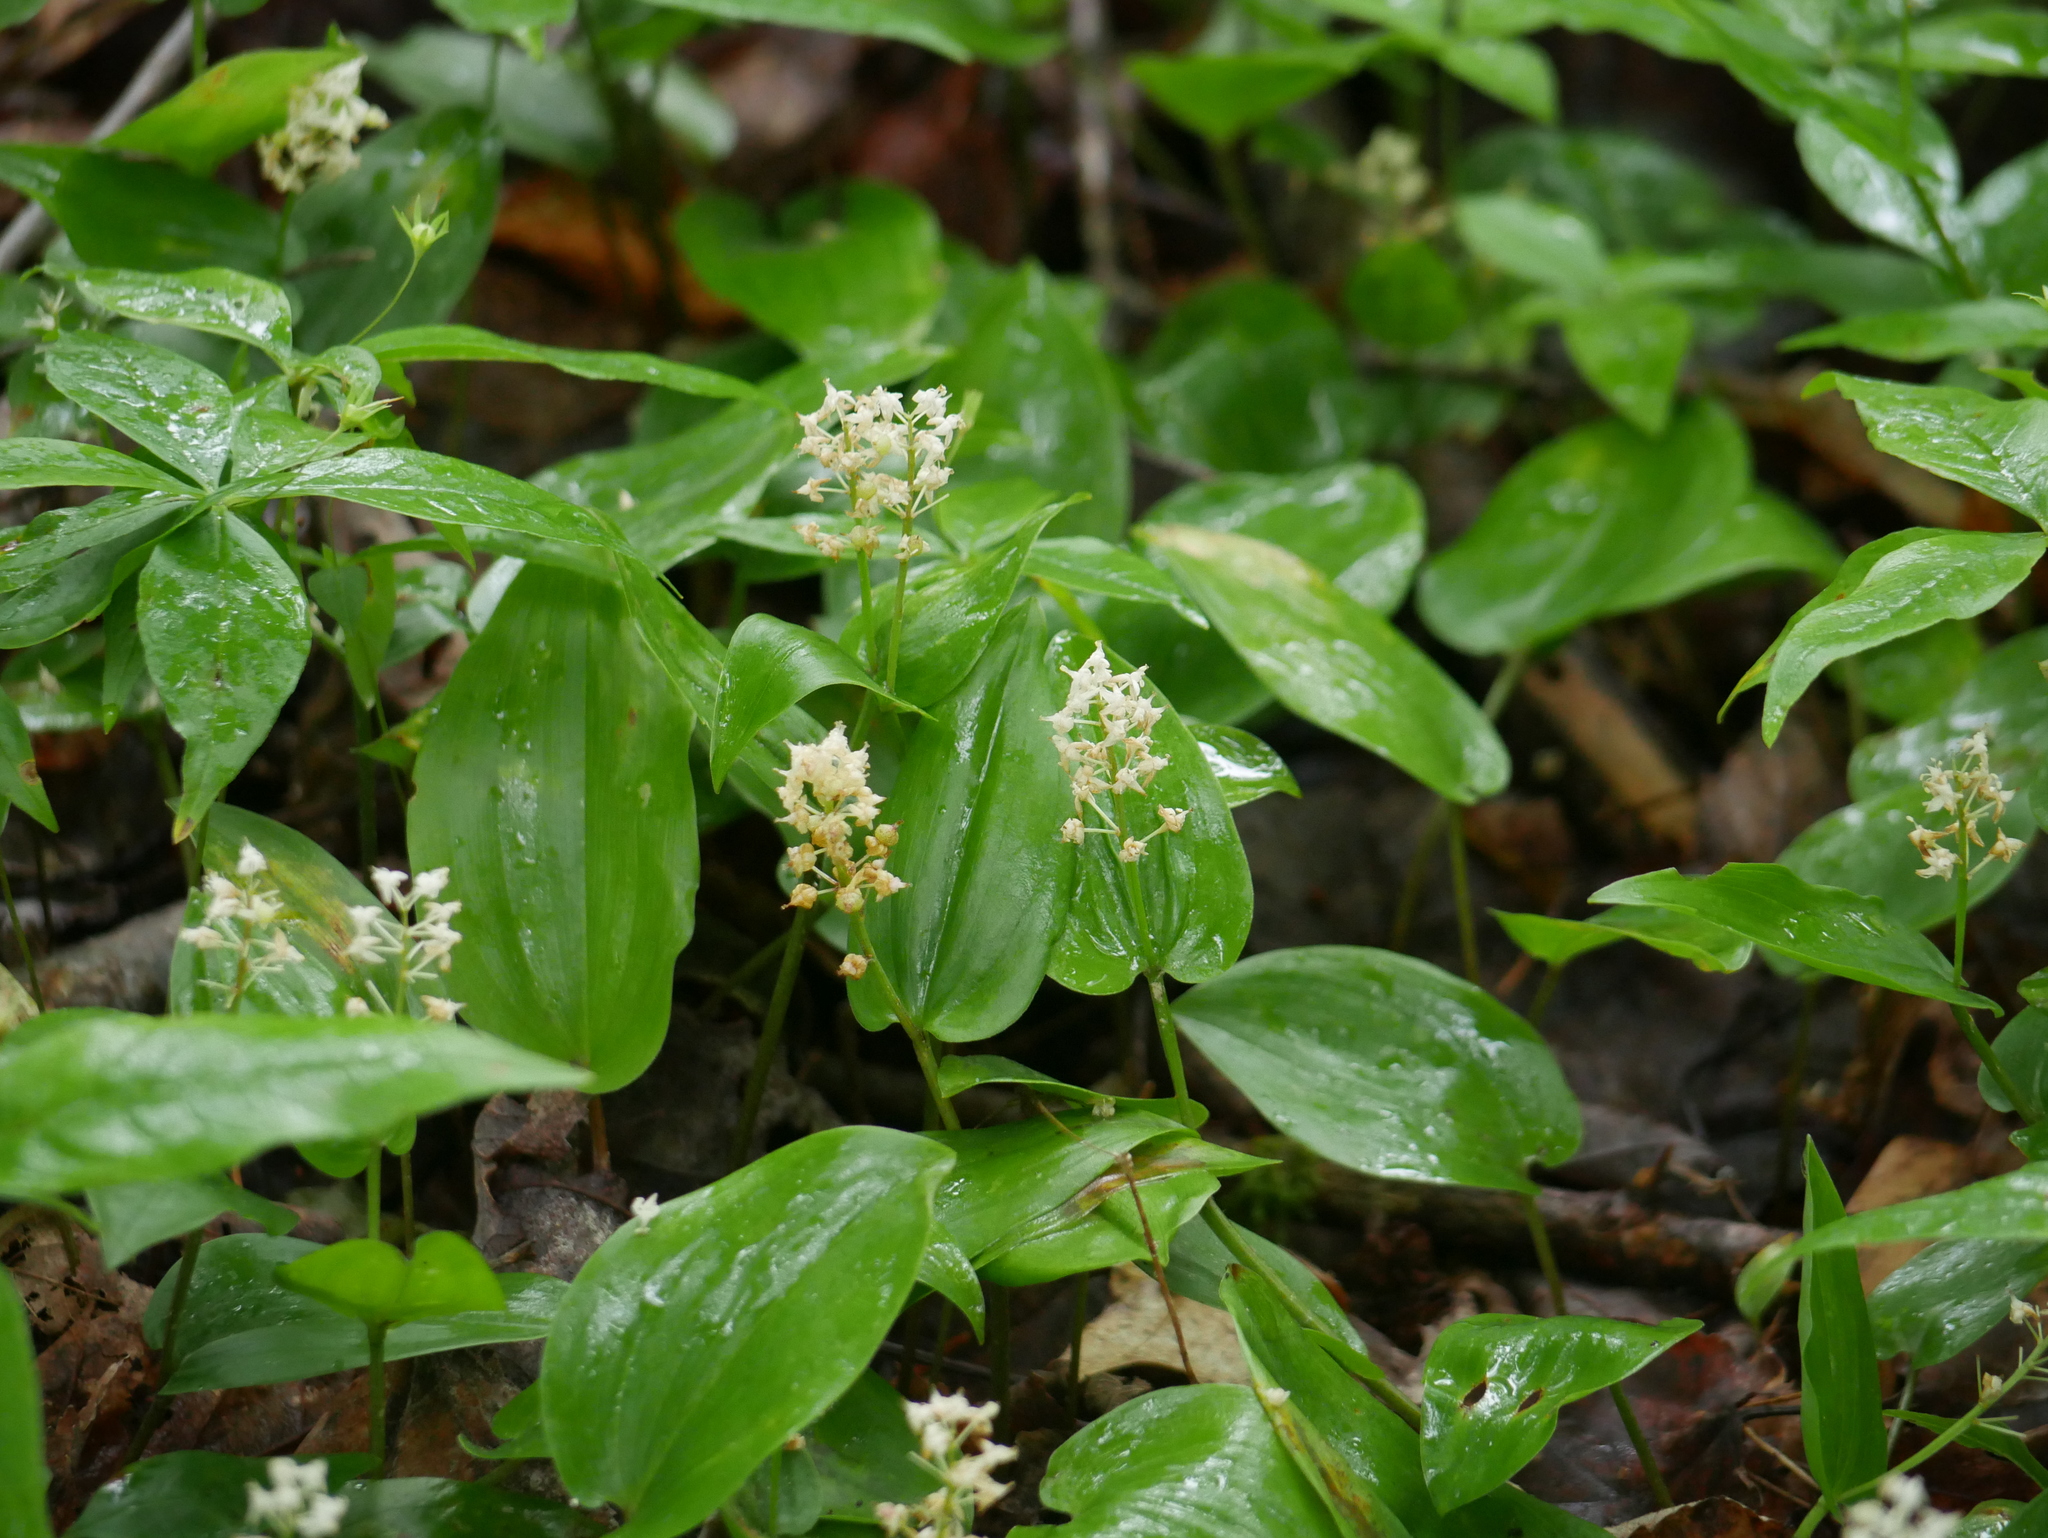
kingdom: Plantae
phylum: Tracheophyta
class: Liliopsida
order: Asparagales
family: Asparagaceae
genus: Maianthemum
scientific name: Maianthemum canadense
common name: False lily-of-the-valley
